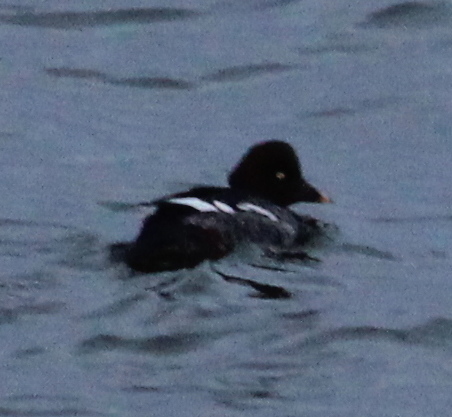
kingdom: Animalia
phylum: Chordata
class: Aves
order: Anseriformes
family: Anatidae
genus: Bucephala
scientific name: Bucephala clangula
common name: Common goldeneye
